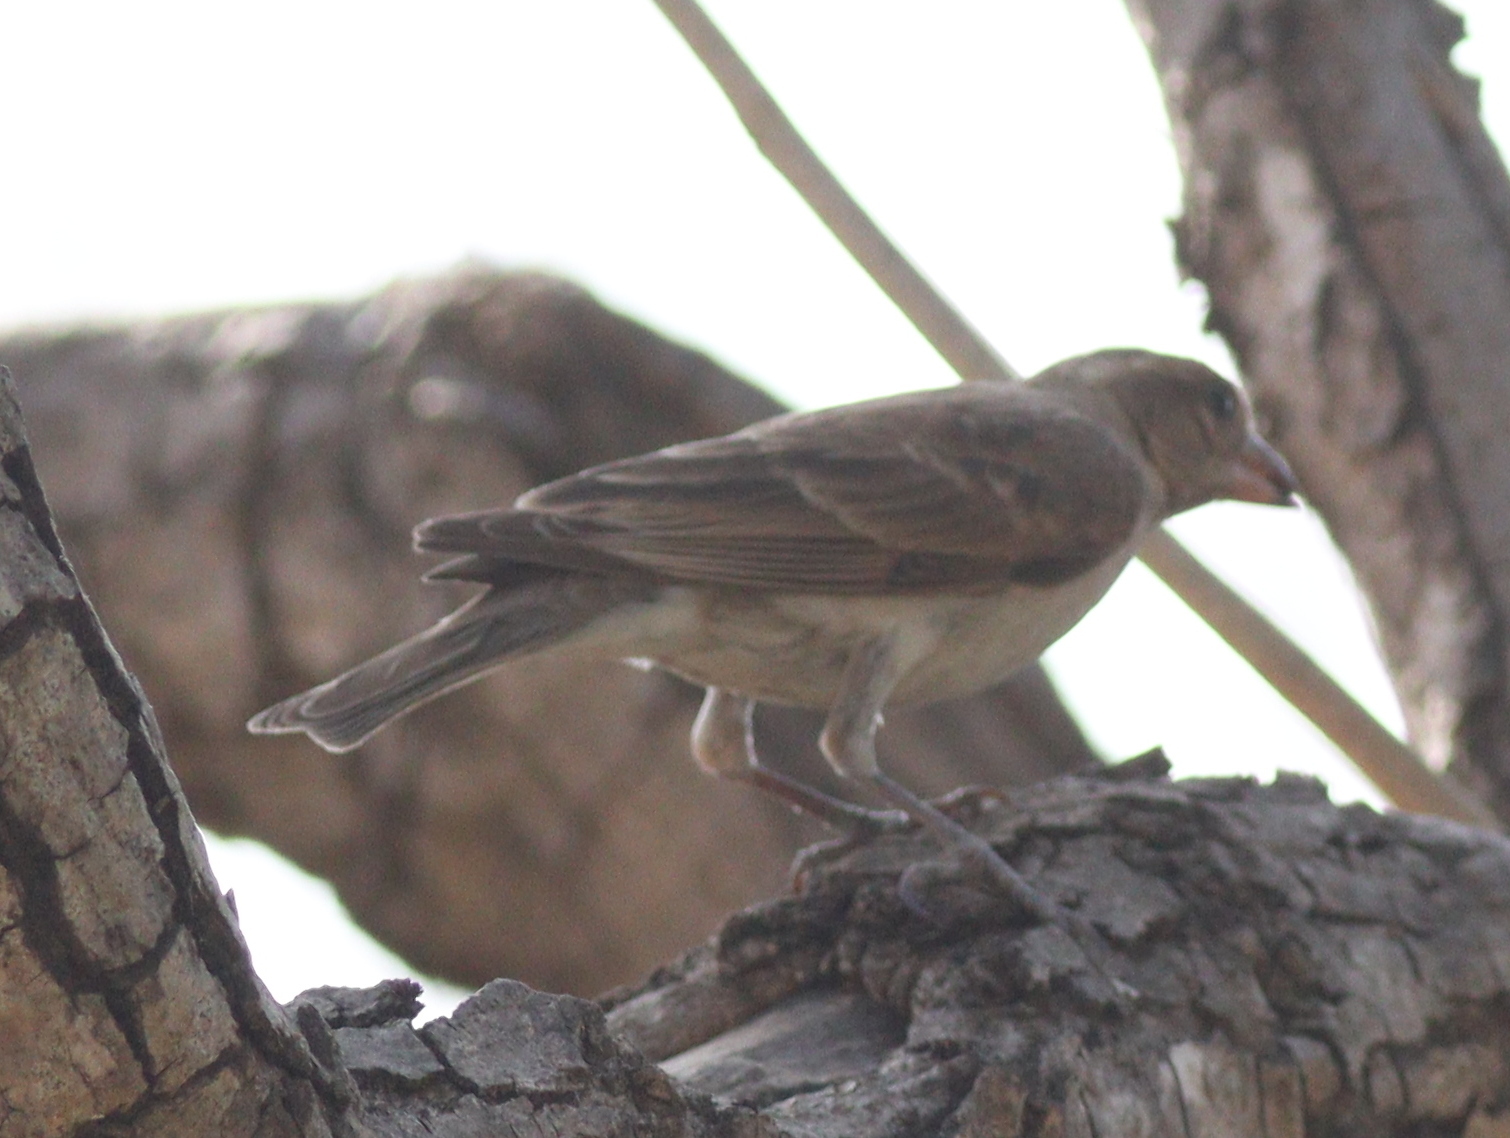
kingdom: Animalia
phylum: Chordata
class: Aves
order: Passeriformes
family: Passeridae
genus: Gymnoris
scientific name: Gymnoris dentata
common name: Bush petronia
